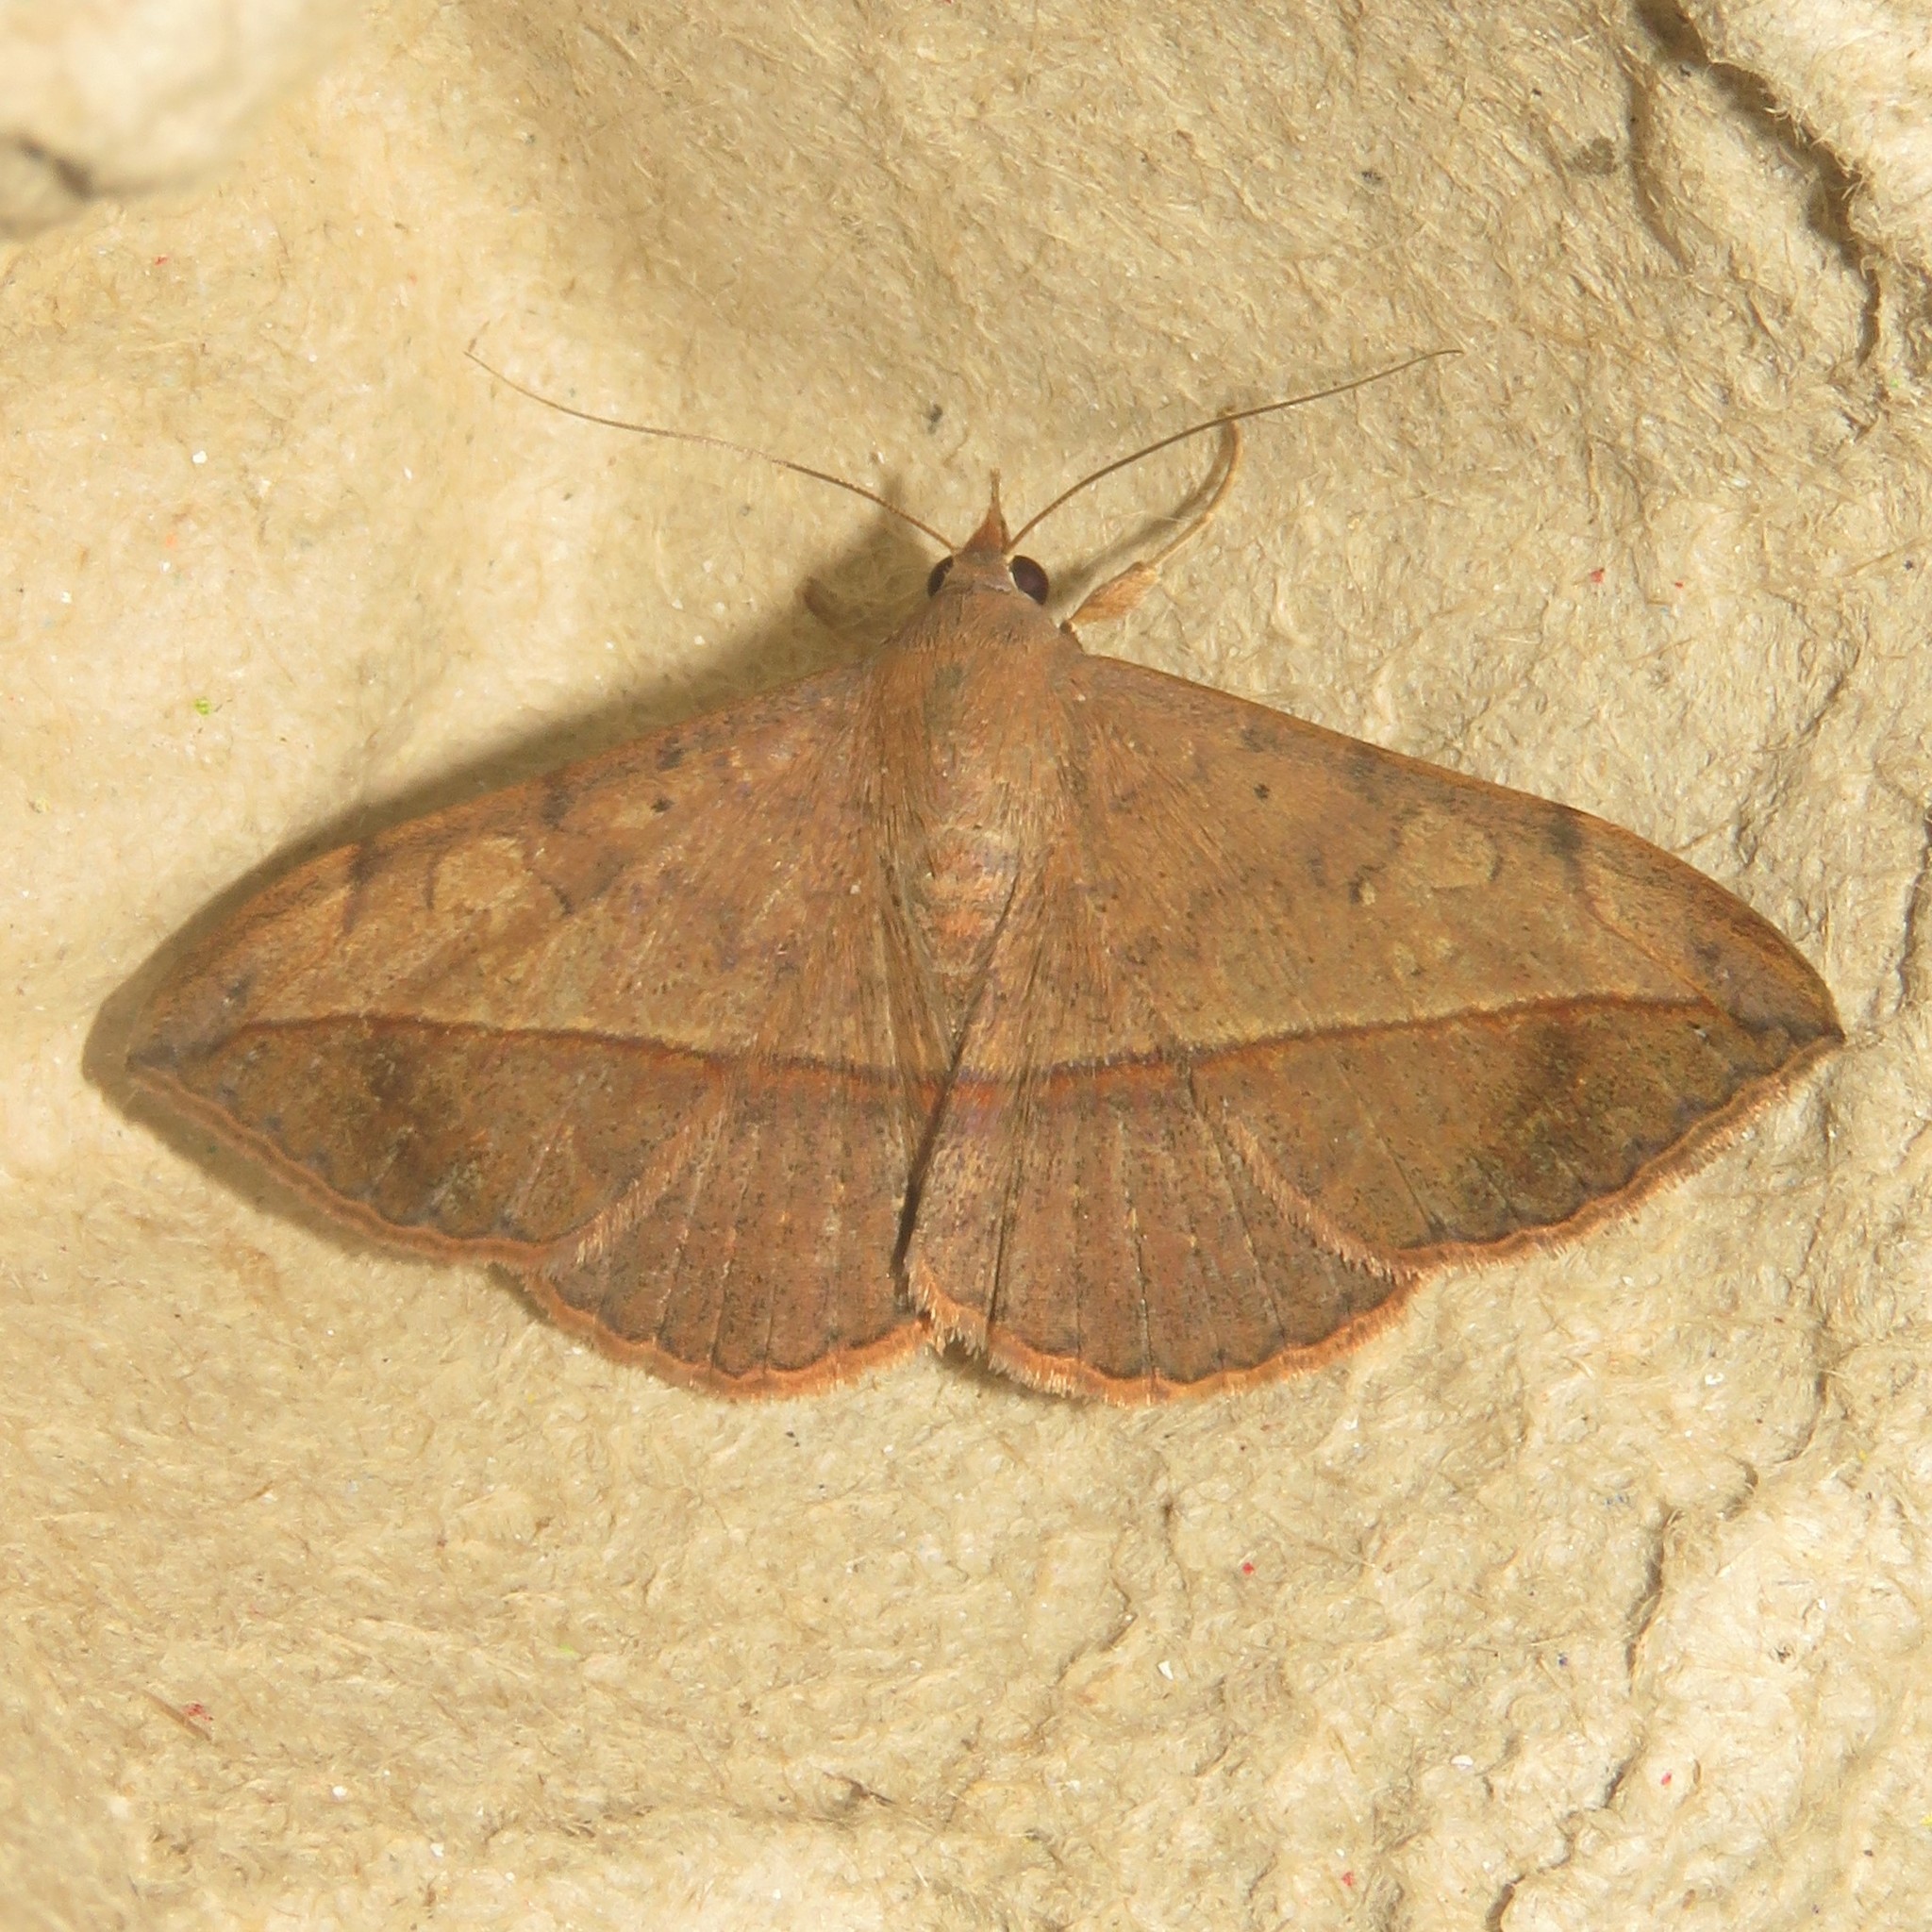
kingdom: Animalia
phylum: Arthropoda
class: Insecta
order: Lepidoptera
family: Erebidae
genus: Anticarsia
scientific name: Anticarsia gemmatalis
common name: Cutworm moth
